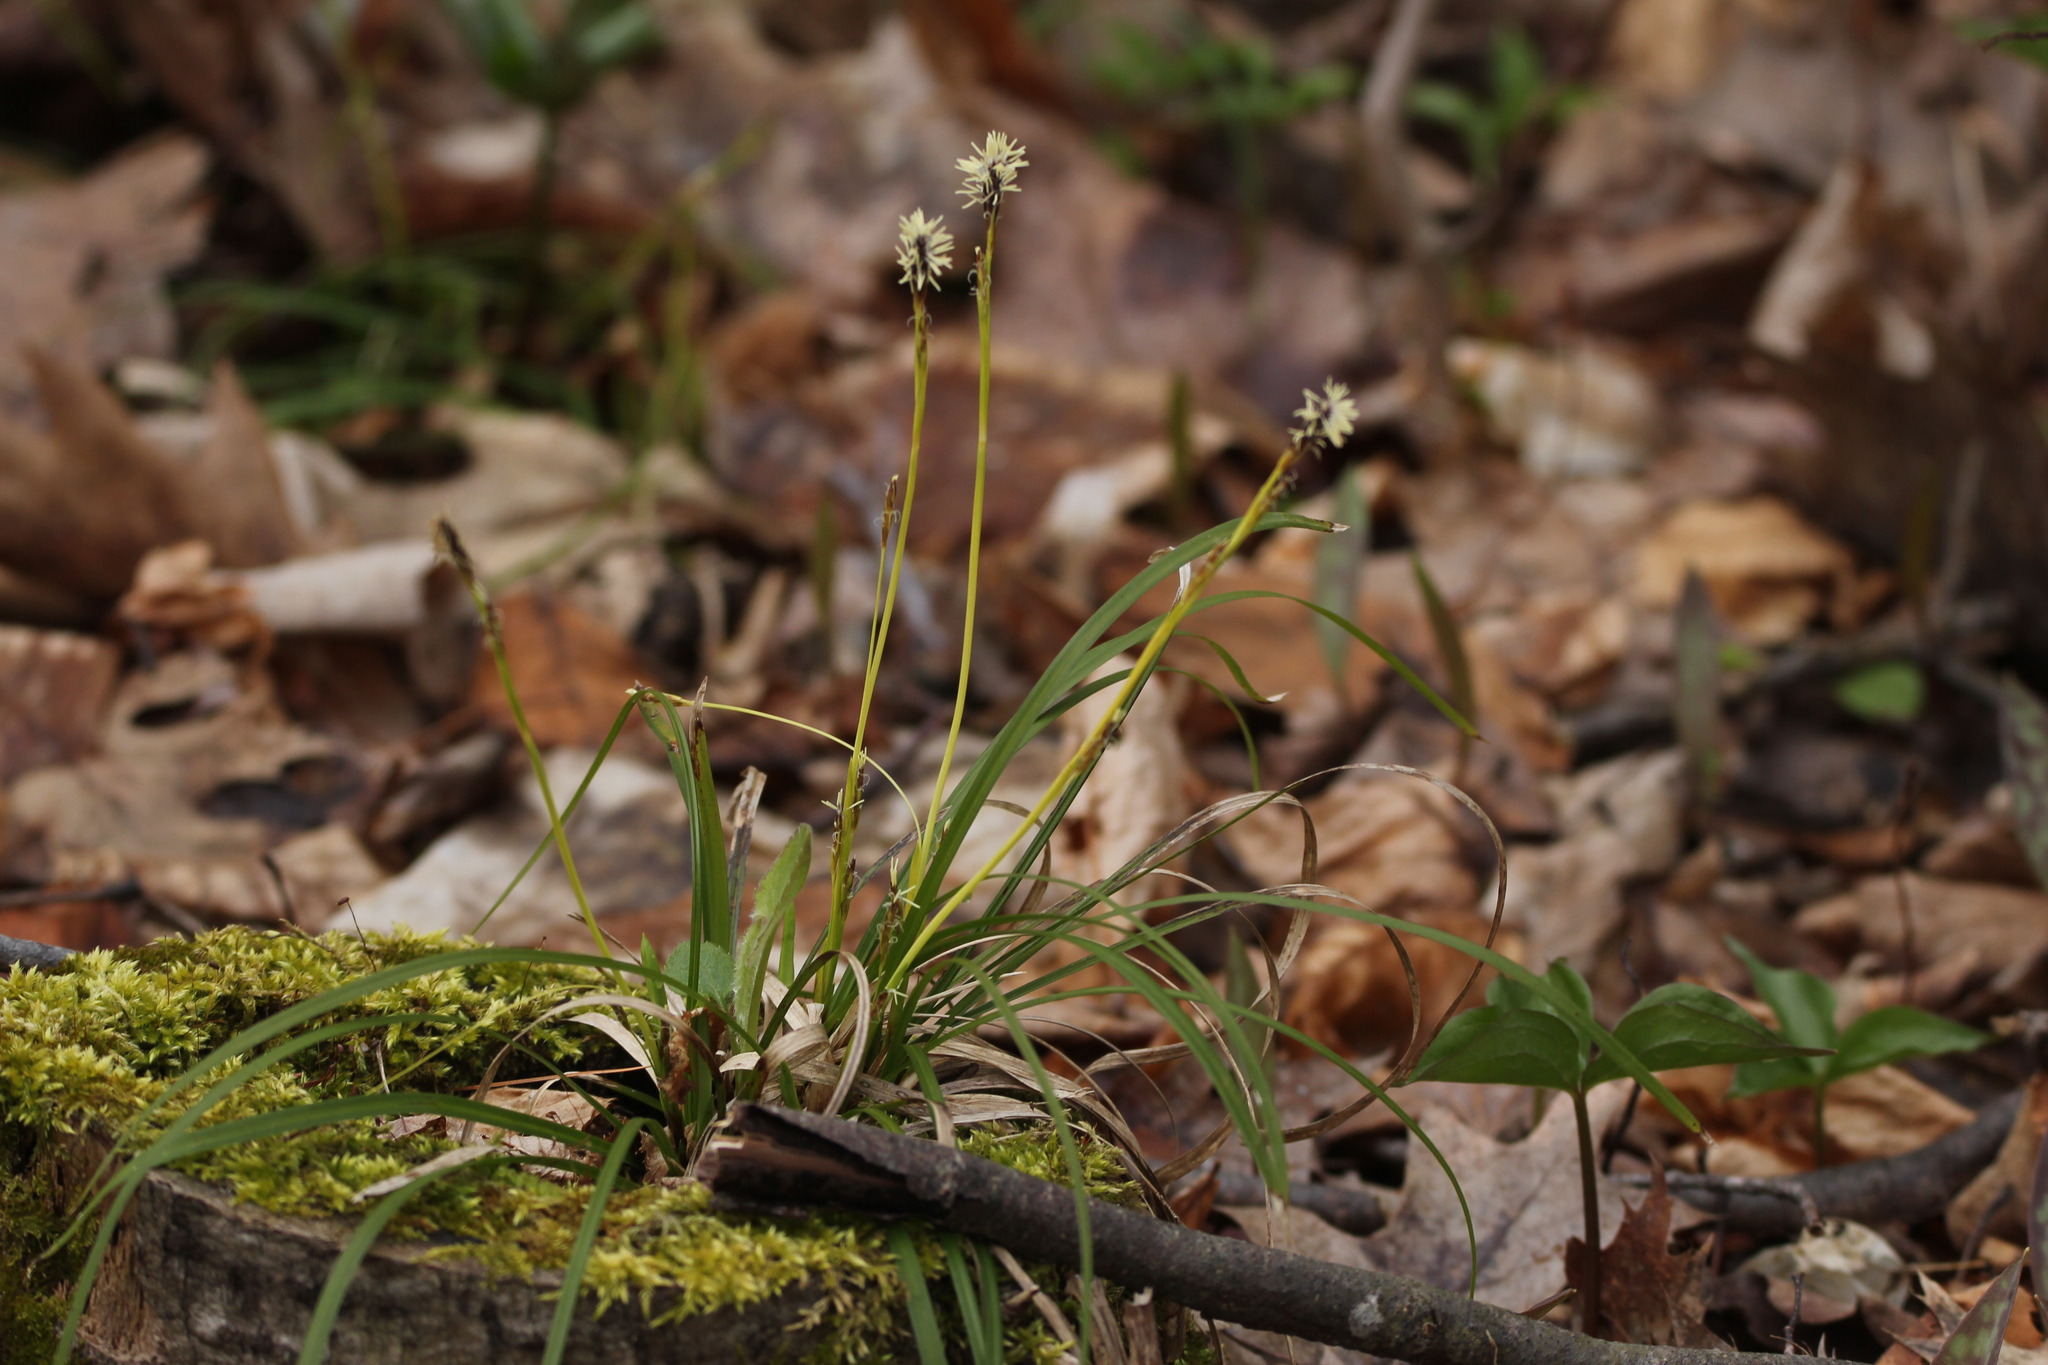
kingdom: Plantae
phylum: Tracheophyta
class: Liliopsida
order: Poales
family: Cyperaceae
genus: Carex
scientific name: Carex pedunculata
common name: Pedunculate sedge
